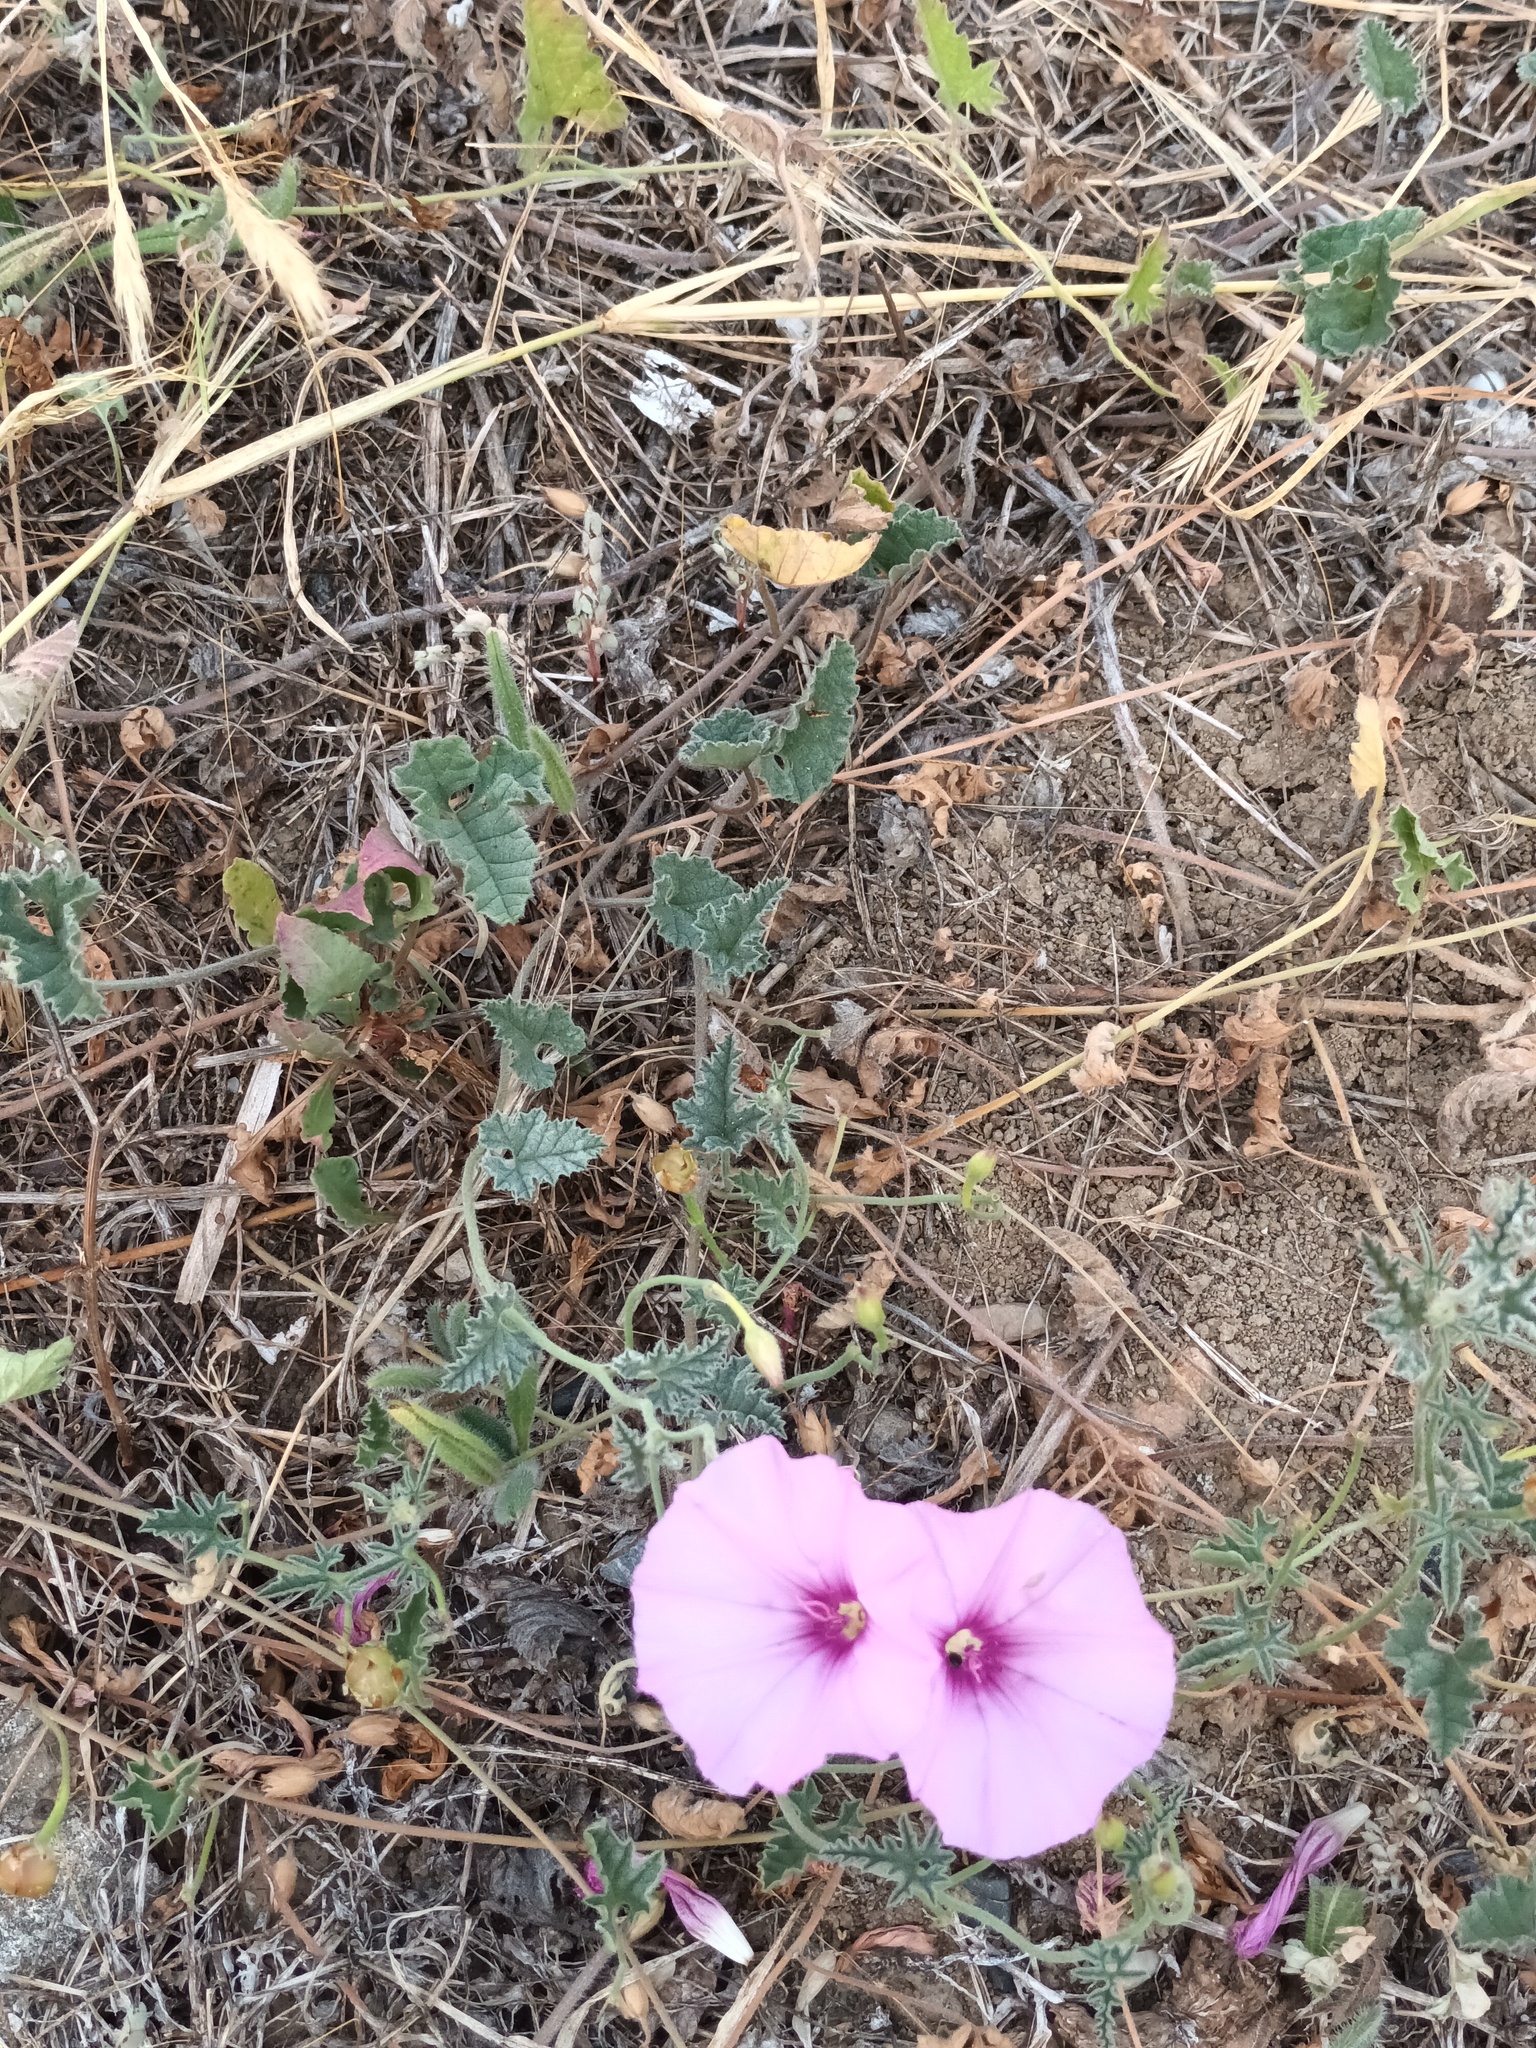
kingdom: Plantae
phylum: Tracheophyta
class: Magnoliopsida
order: Solanales
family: Convolvulaceae
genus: Convolvulus
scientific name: Convolvulus althaeoides
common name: Mallow bindweed
